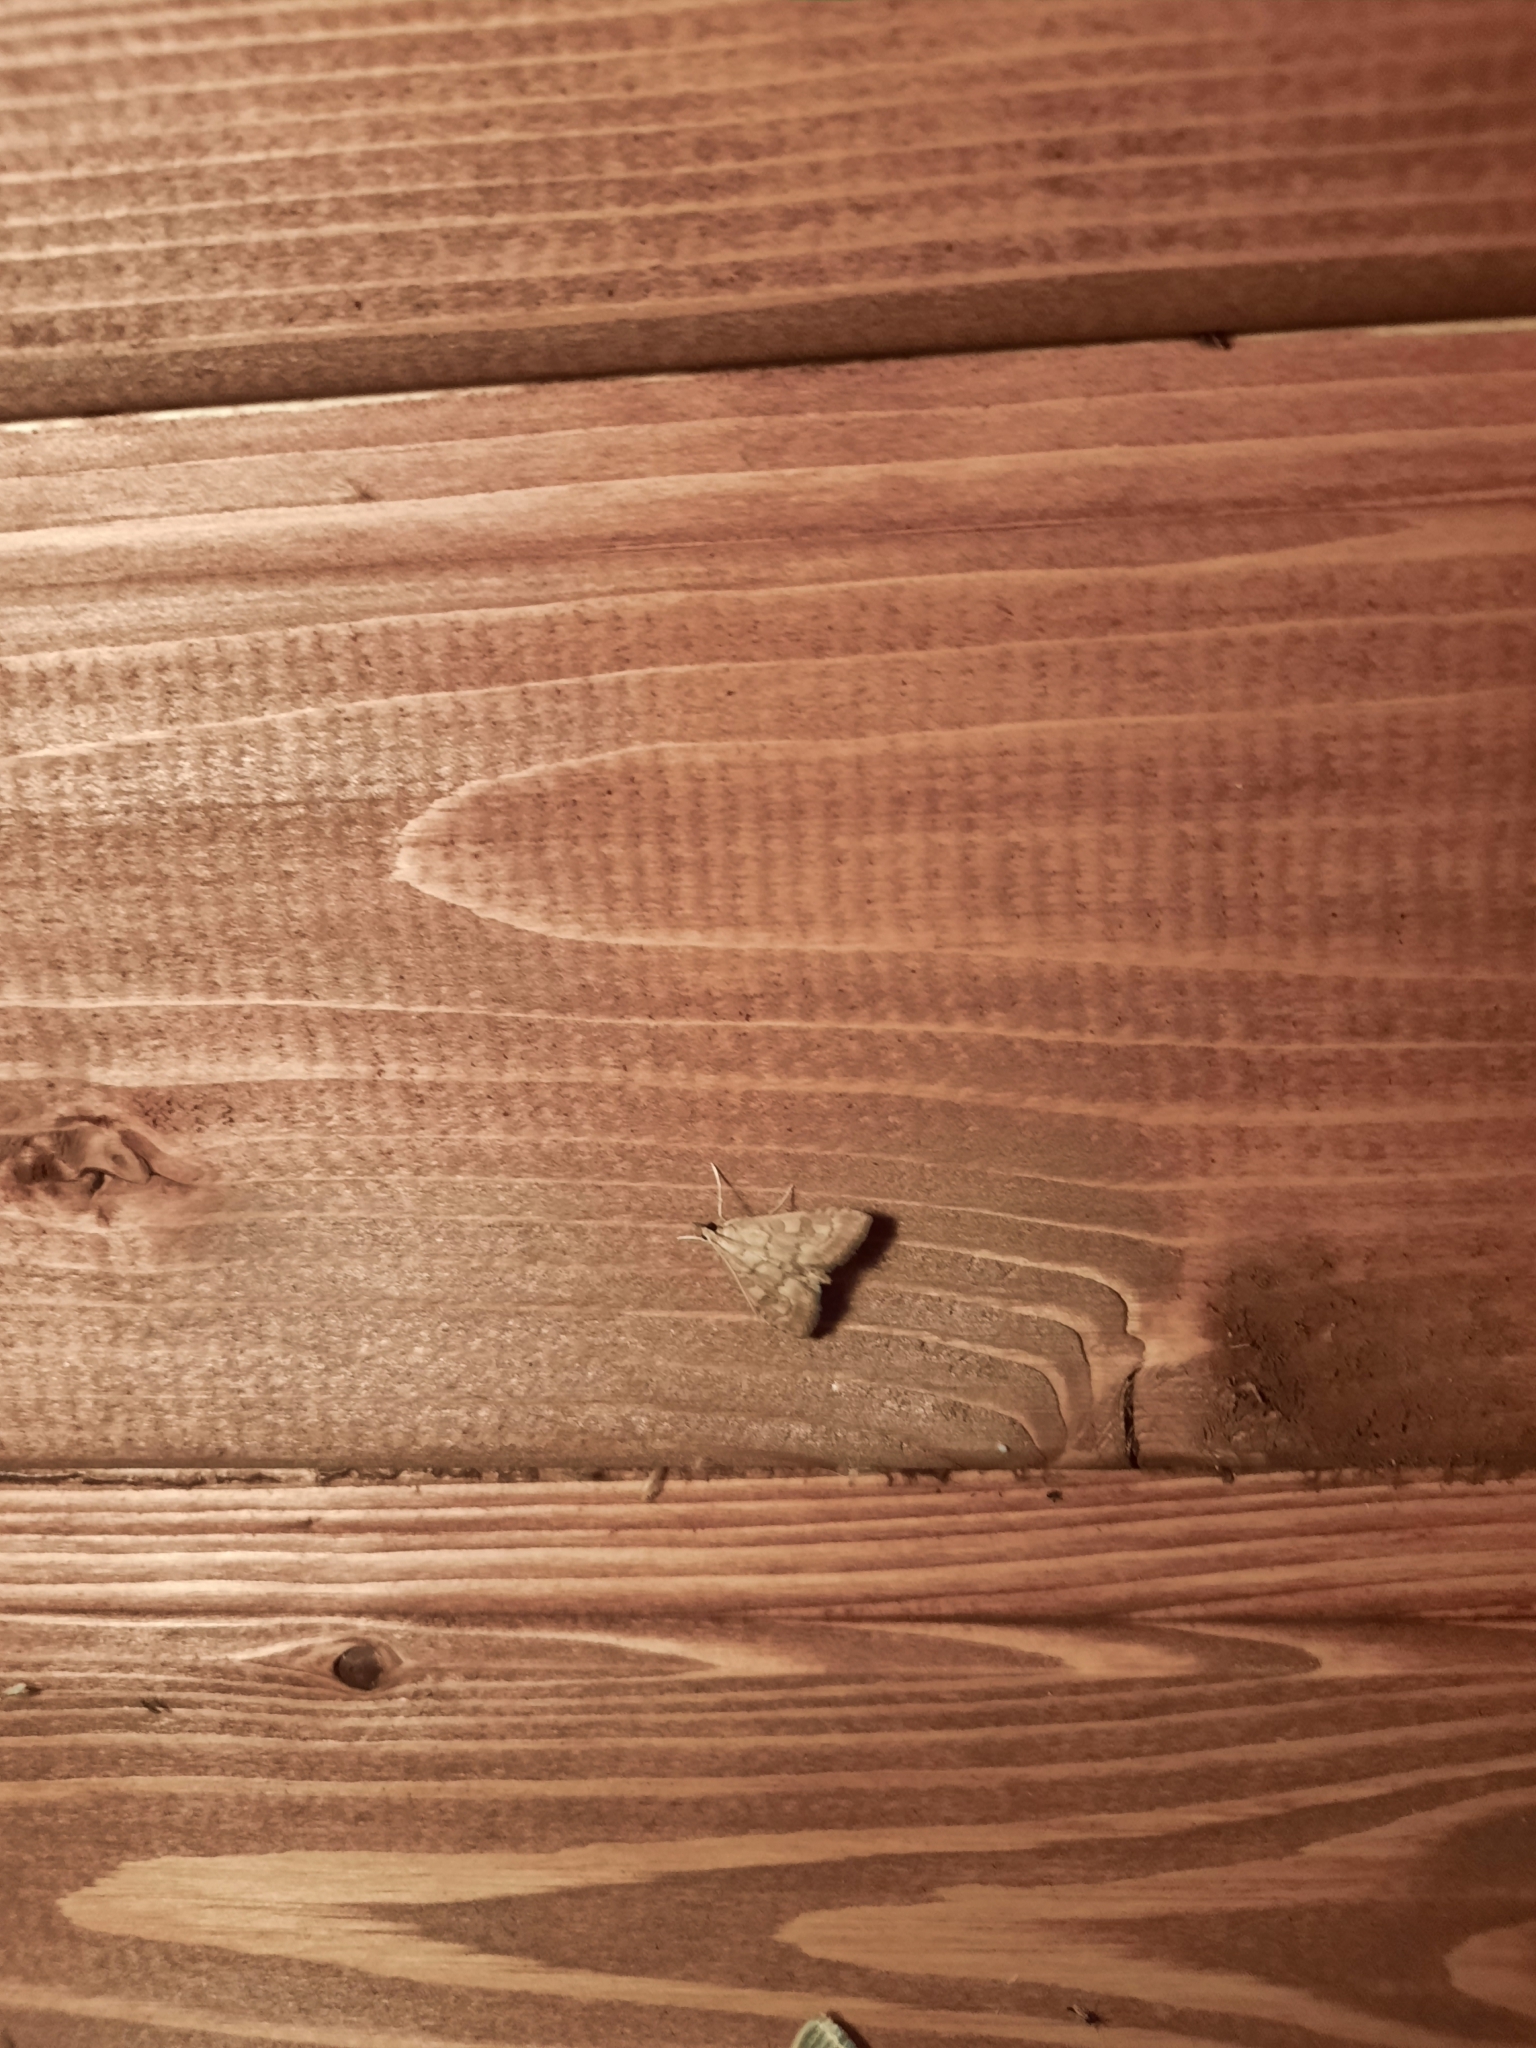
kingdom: Animalia
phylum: Arthropoda
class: Insecta
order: Lepidoptera
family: Crambidae
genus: Udea
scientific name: Udea fulvalis
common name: Fulvous pearl
